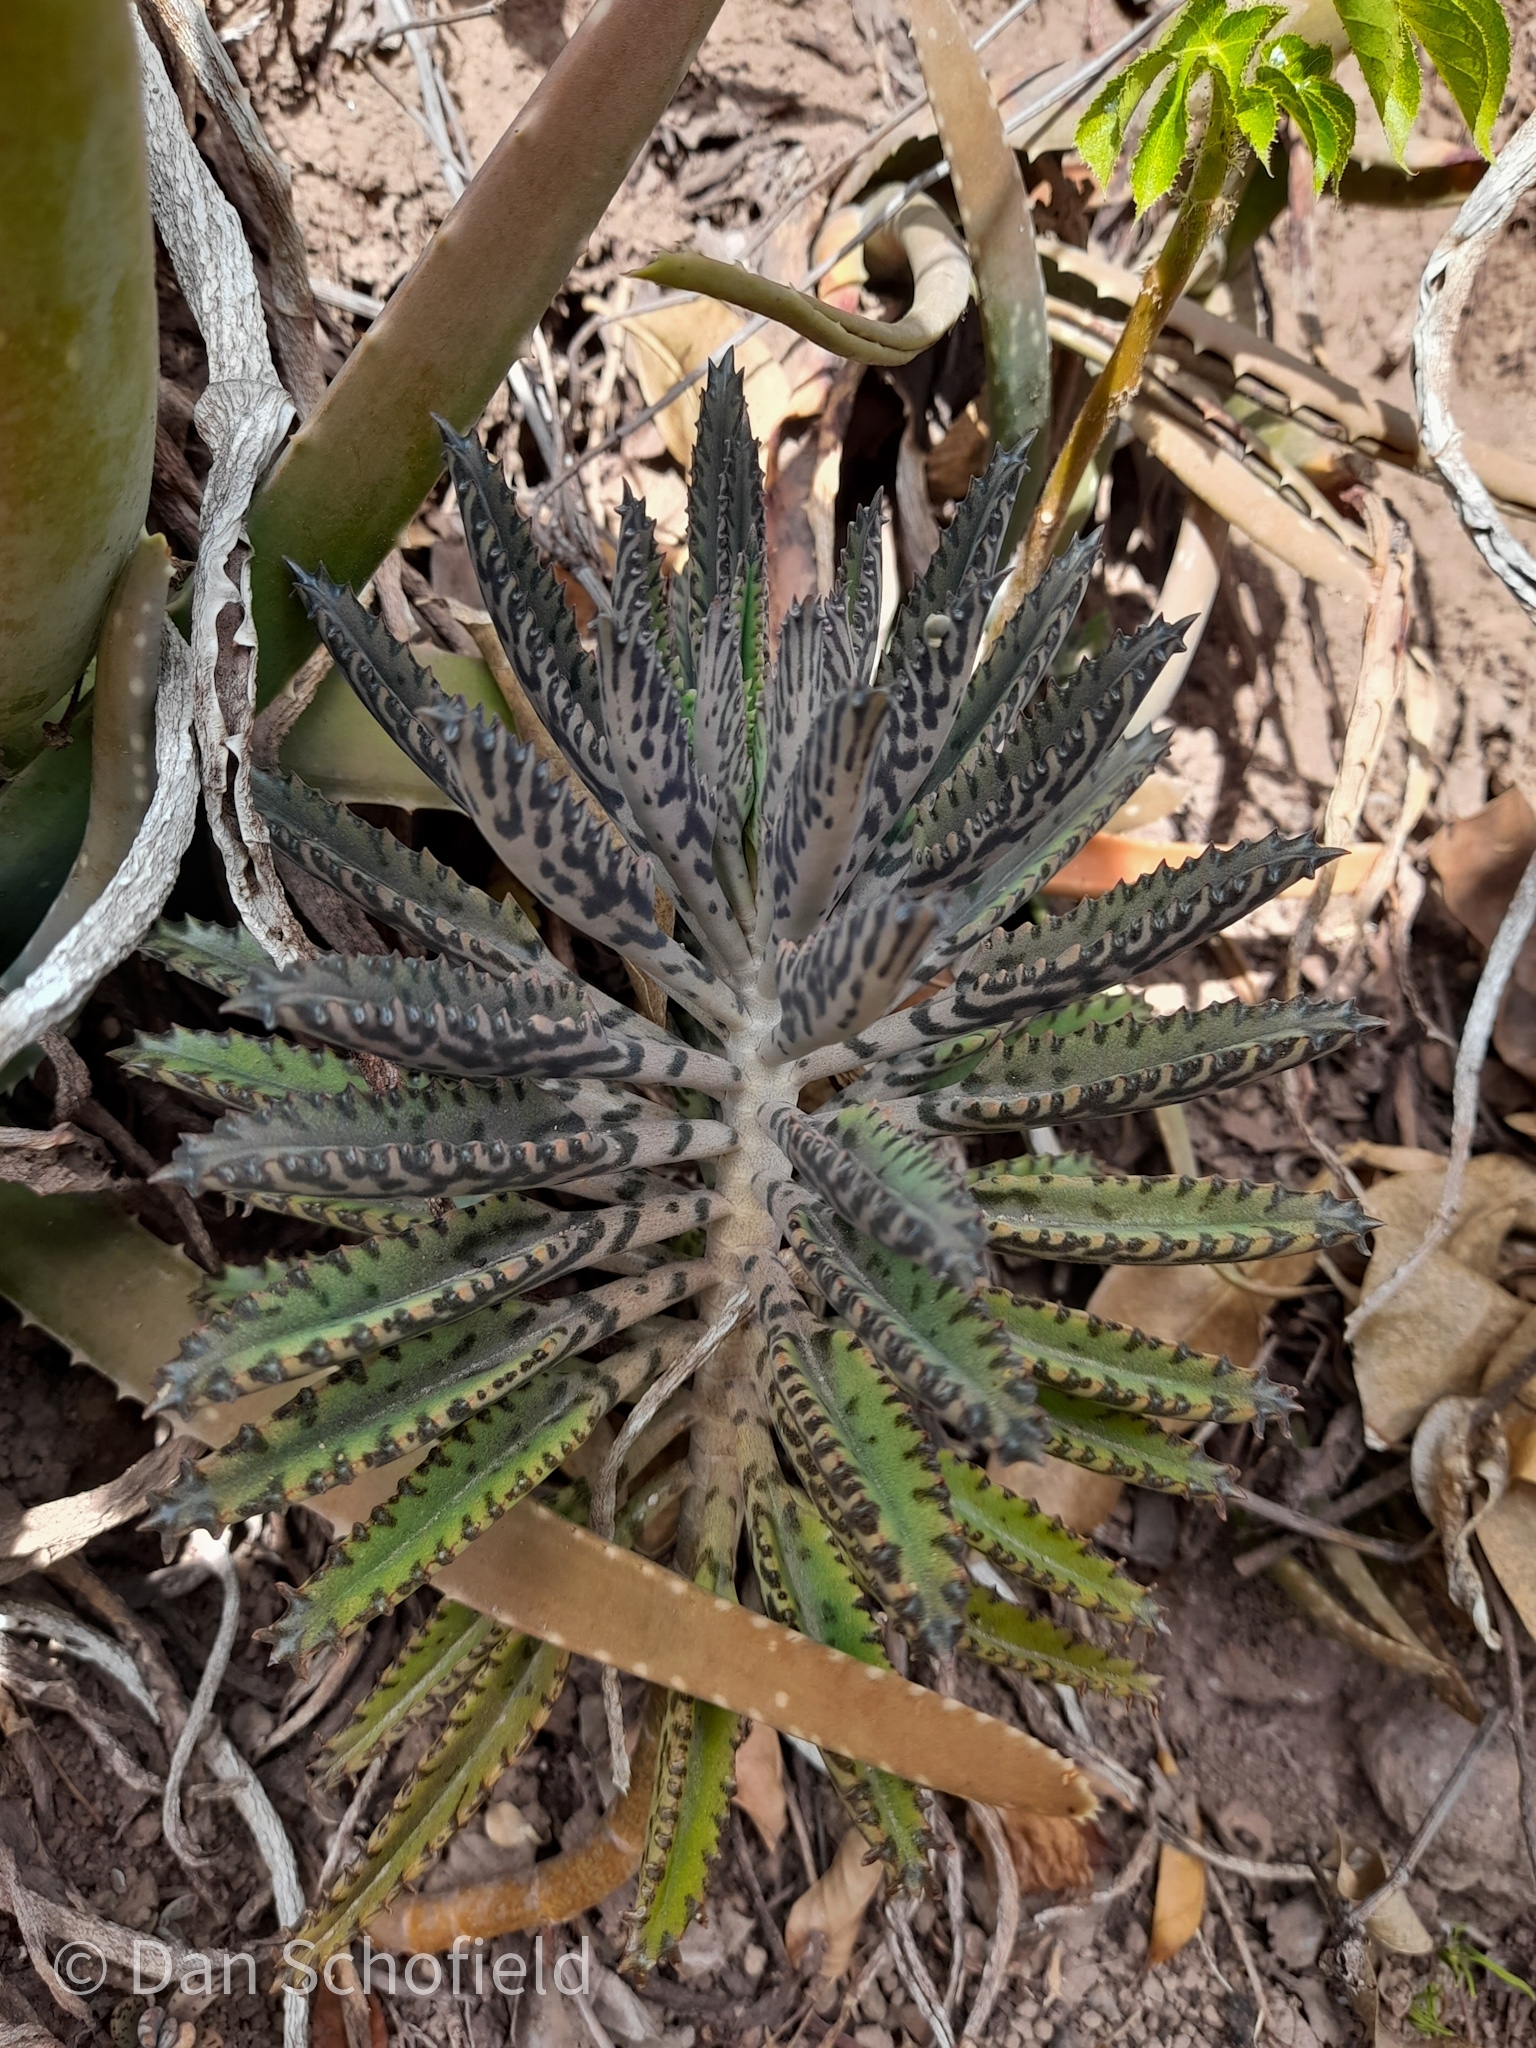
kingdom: Plantae
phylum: Tracheophyta
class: Magnoliopsida
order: Saxifragales
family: Crassulaceae
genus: Kalanchoe
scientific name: Kalanchoe houghtonii
